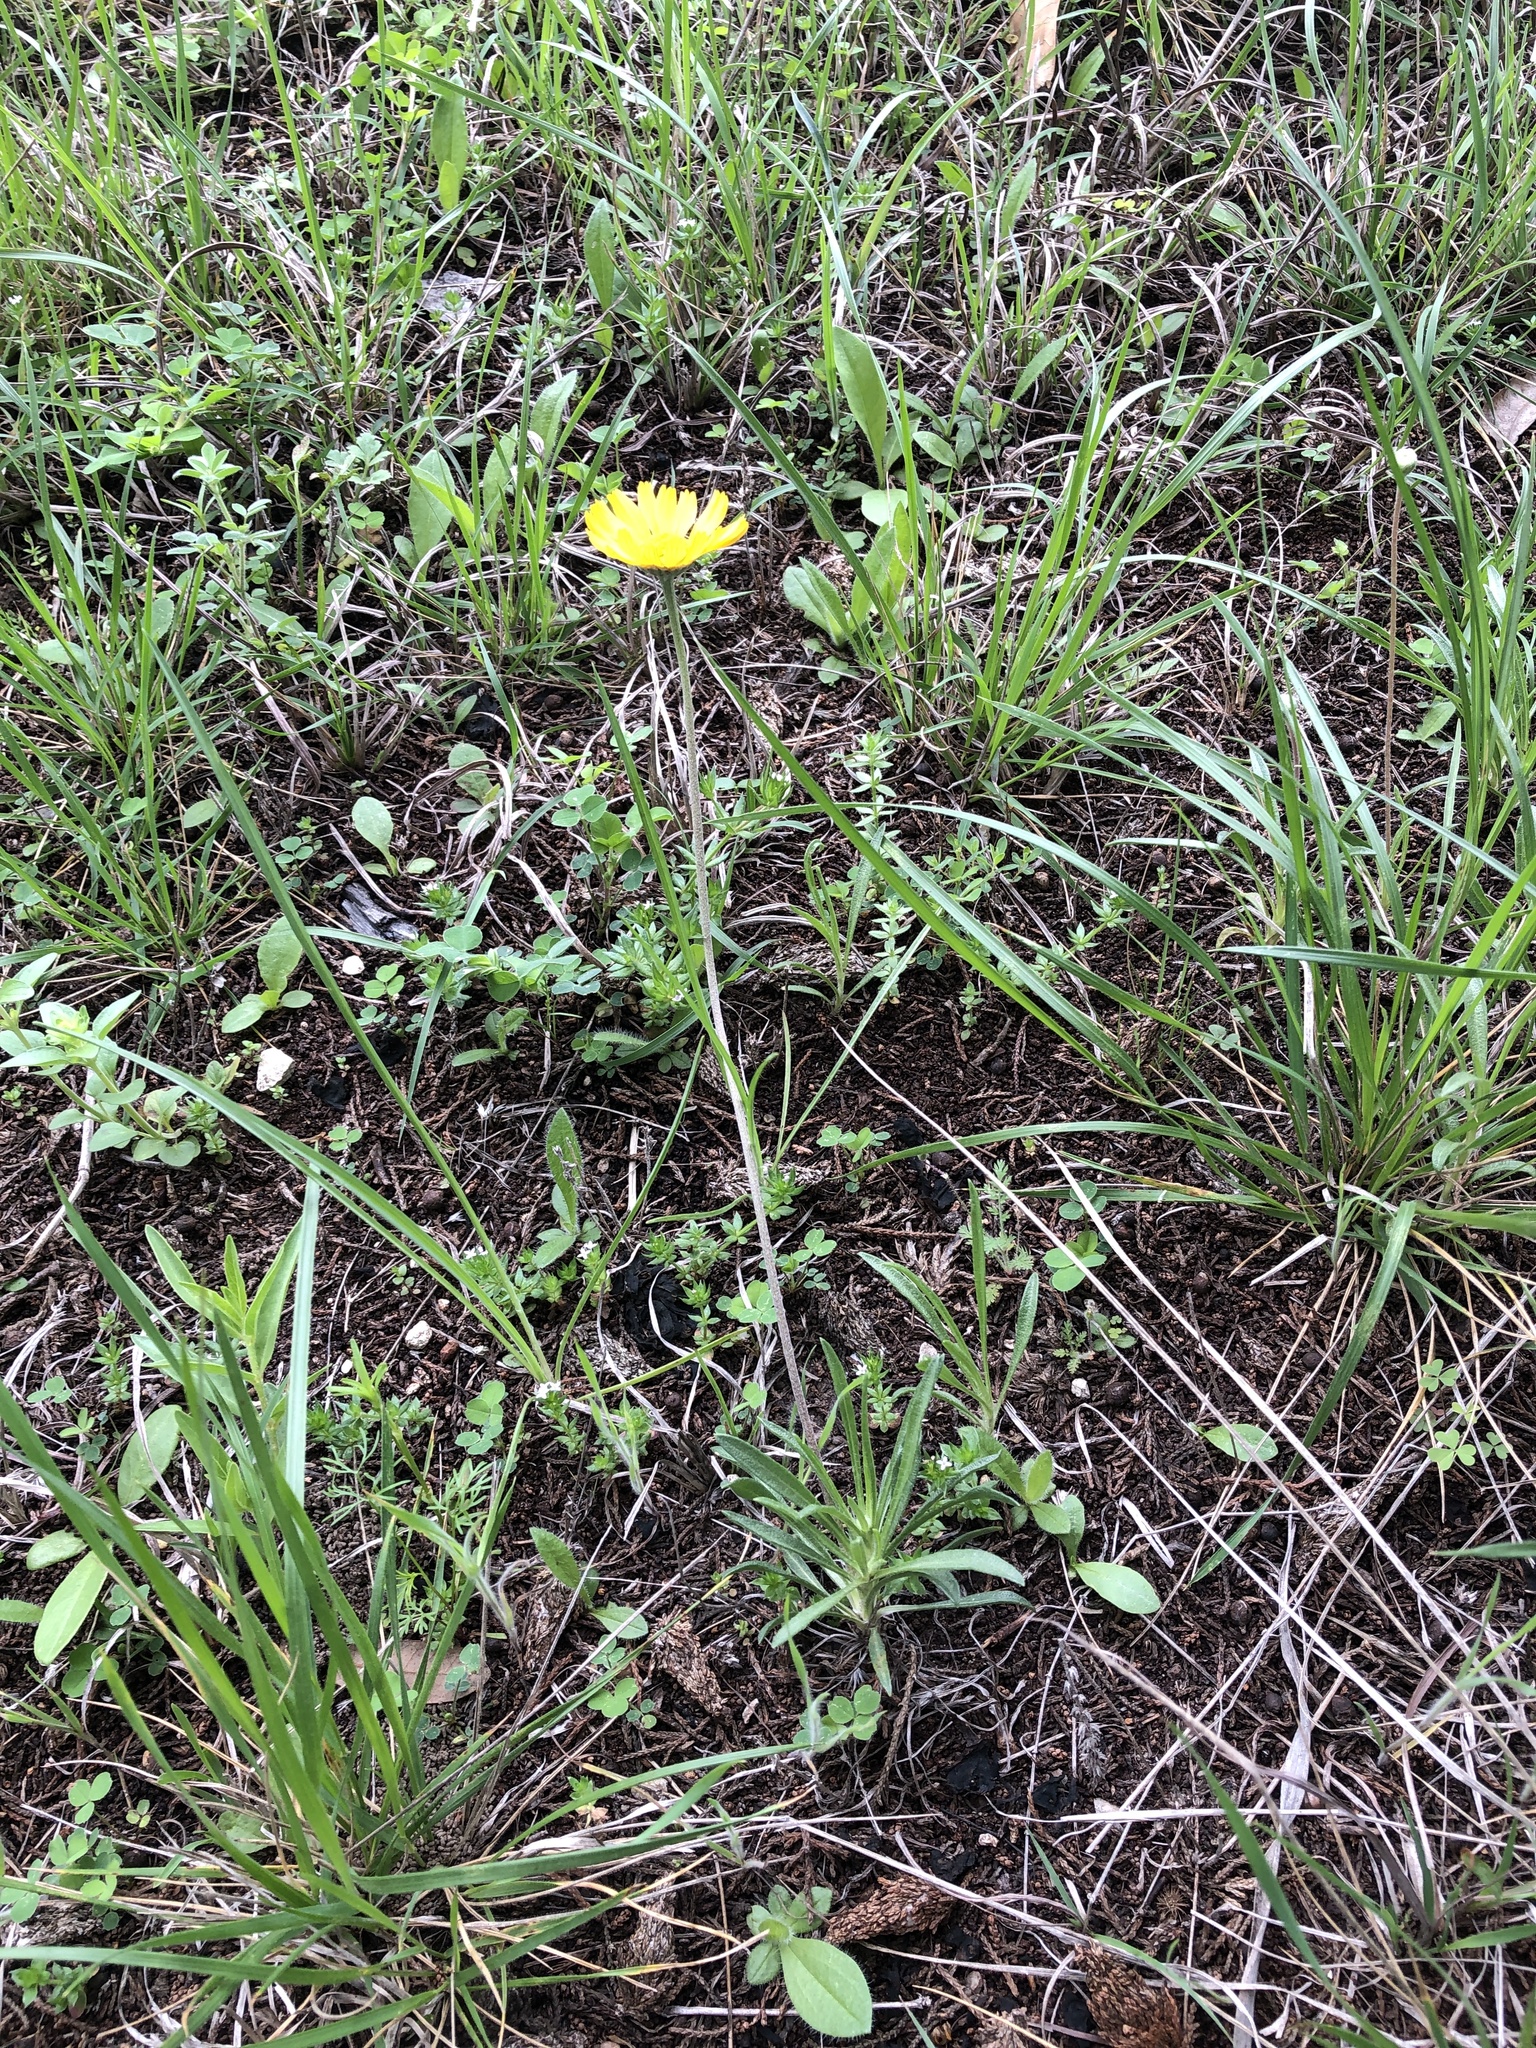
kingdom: Plantae
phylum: Tracheophyta
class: Magnoliopsida
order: Asterales
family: Asteraceae
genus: Tetraneuris
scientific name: Tetraneuris scaposa
